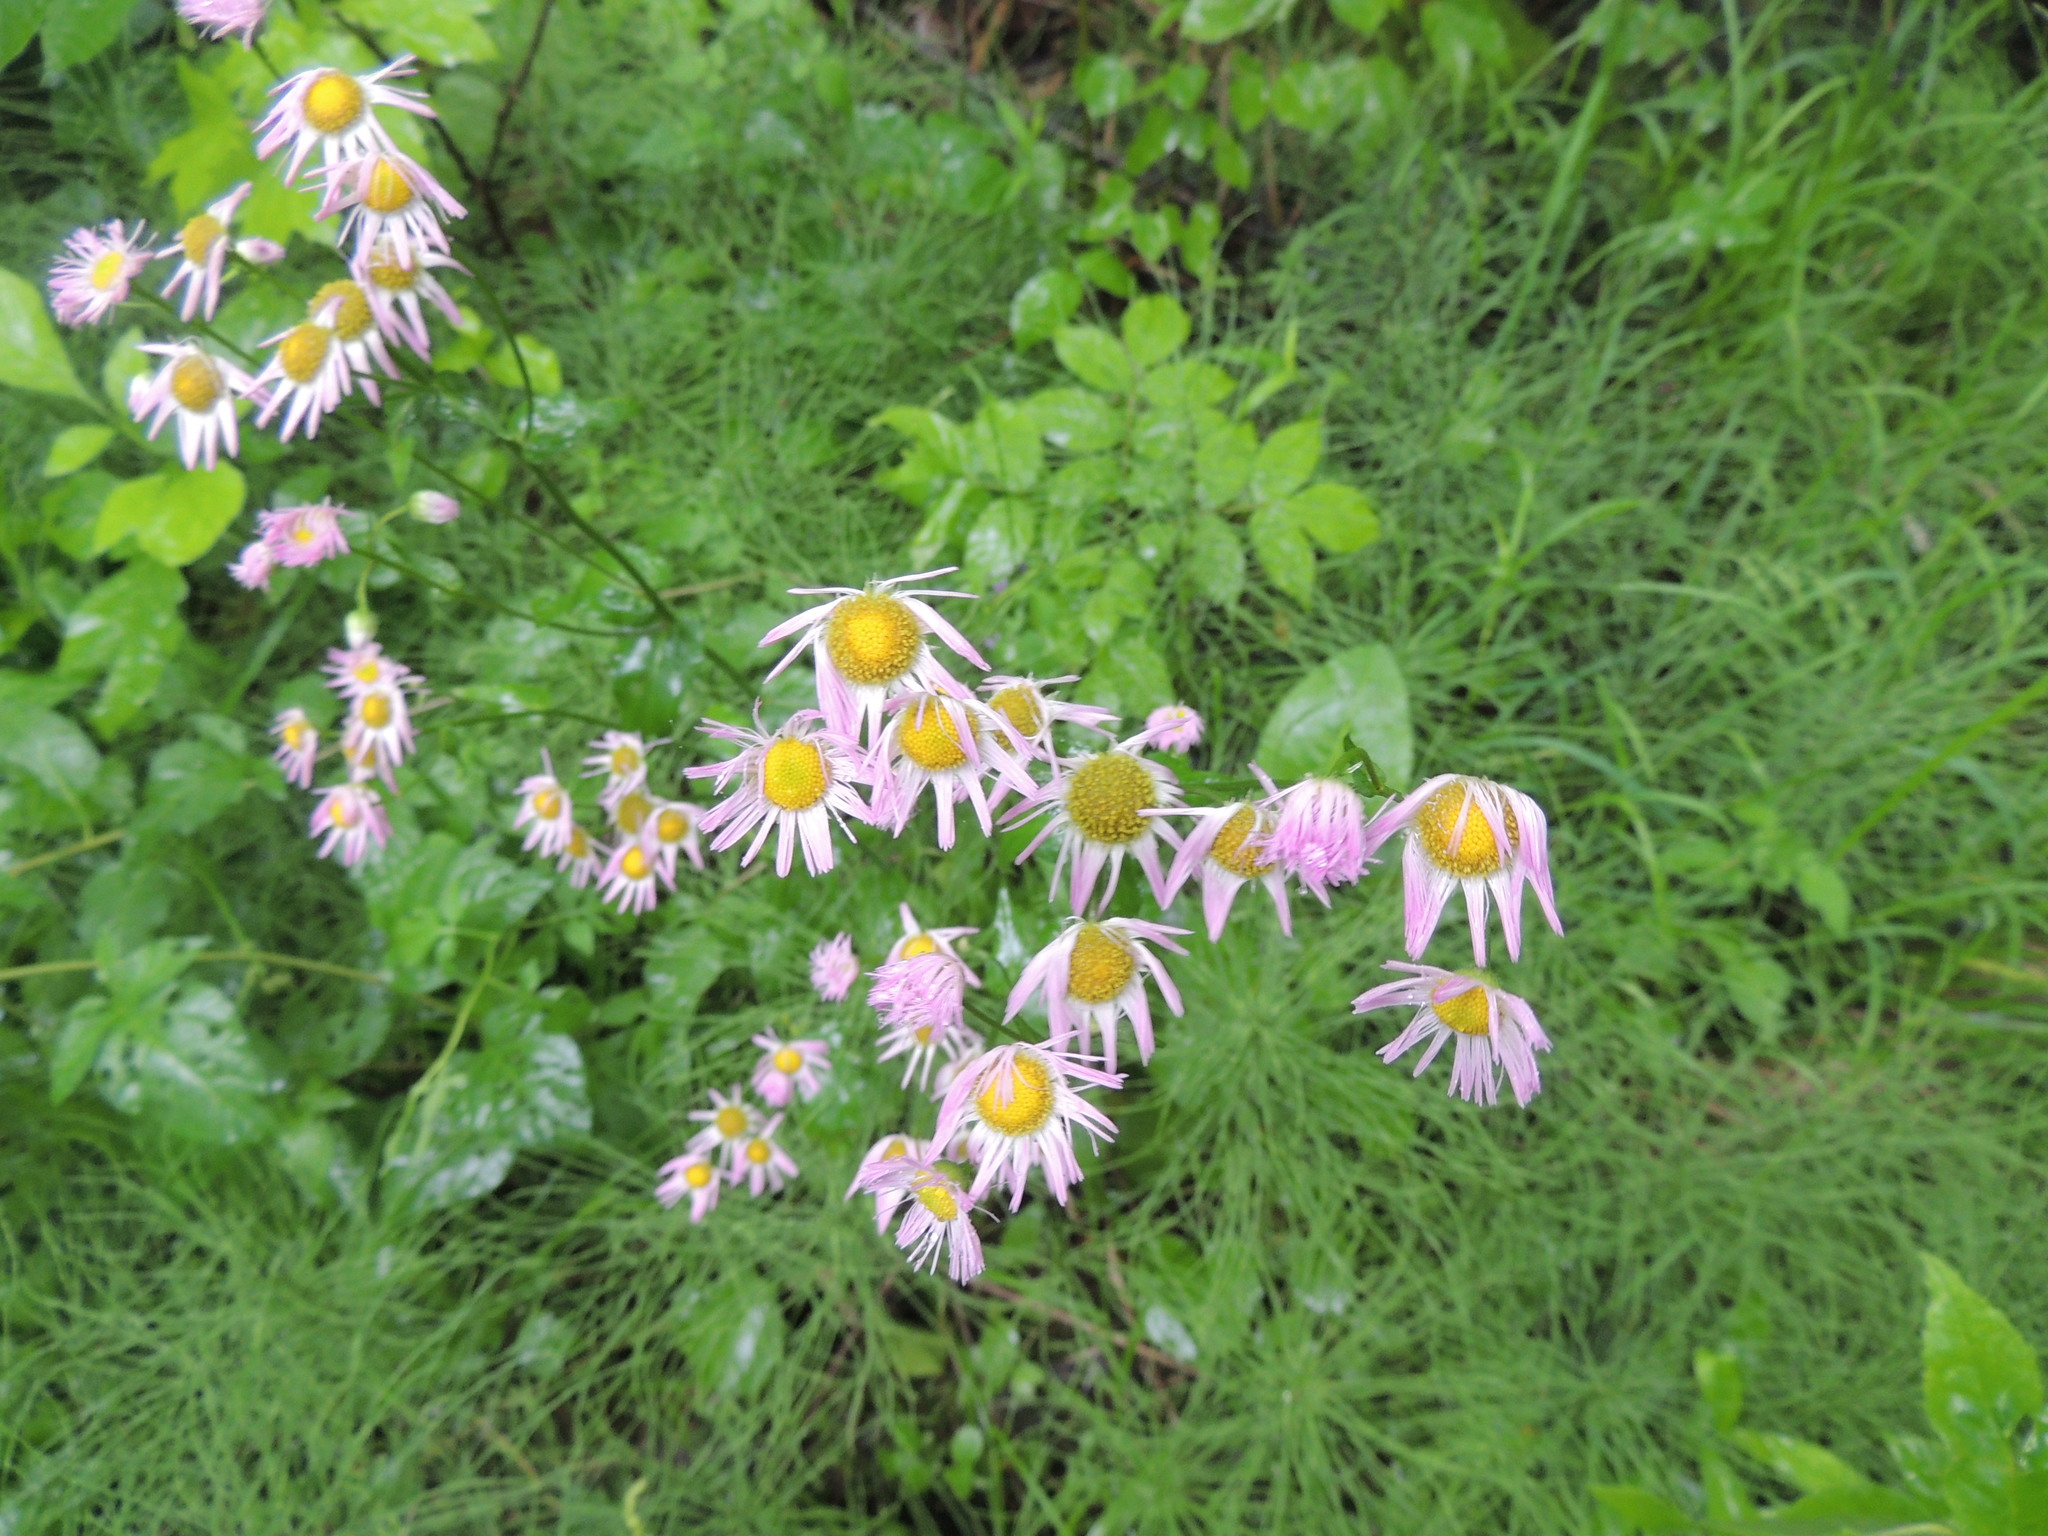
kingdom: Plantae
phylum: Tracheophyta
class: Magnoliopsida
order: Asterales
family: Asteraceae
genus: Erigeron
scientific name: Erigeron philadelphicus
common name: Robin's-plantain
